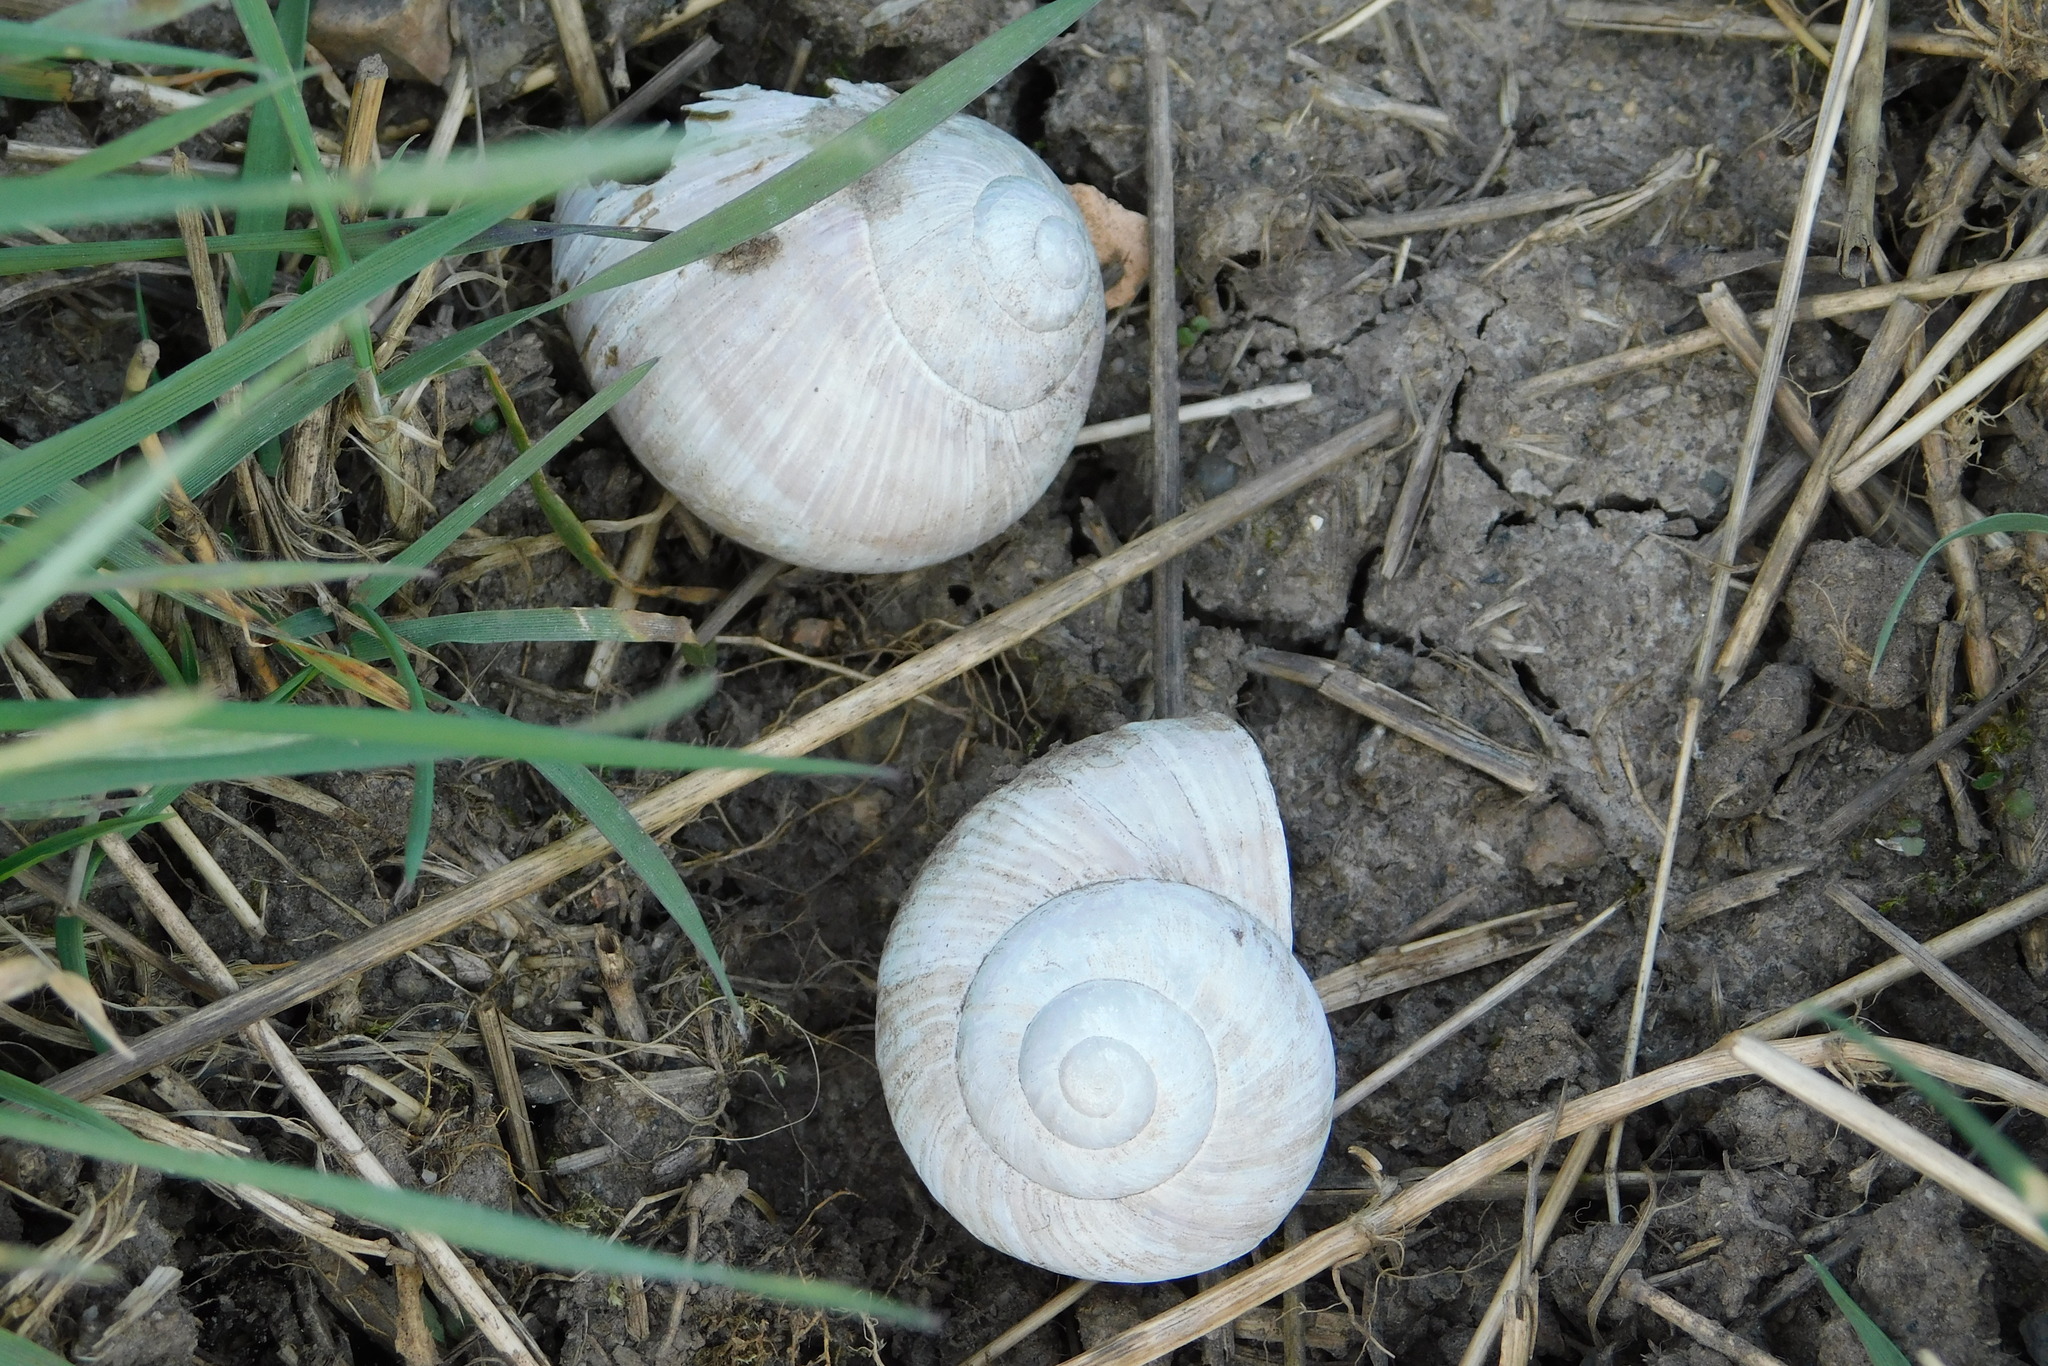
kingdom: Animalia
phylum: Mollusca
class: Gastropoda
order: Stylommatophora
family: Helicidae
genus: Helix
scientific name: Helix pomatia
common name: Roman snail
